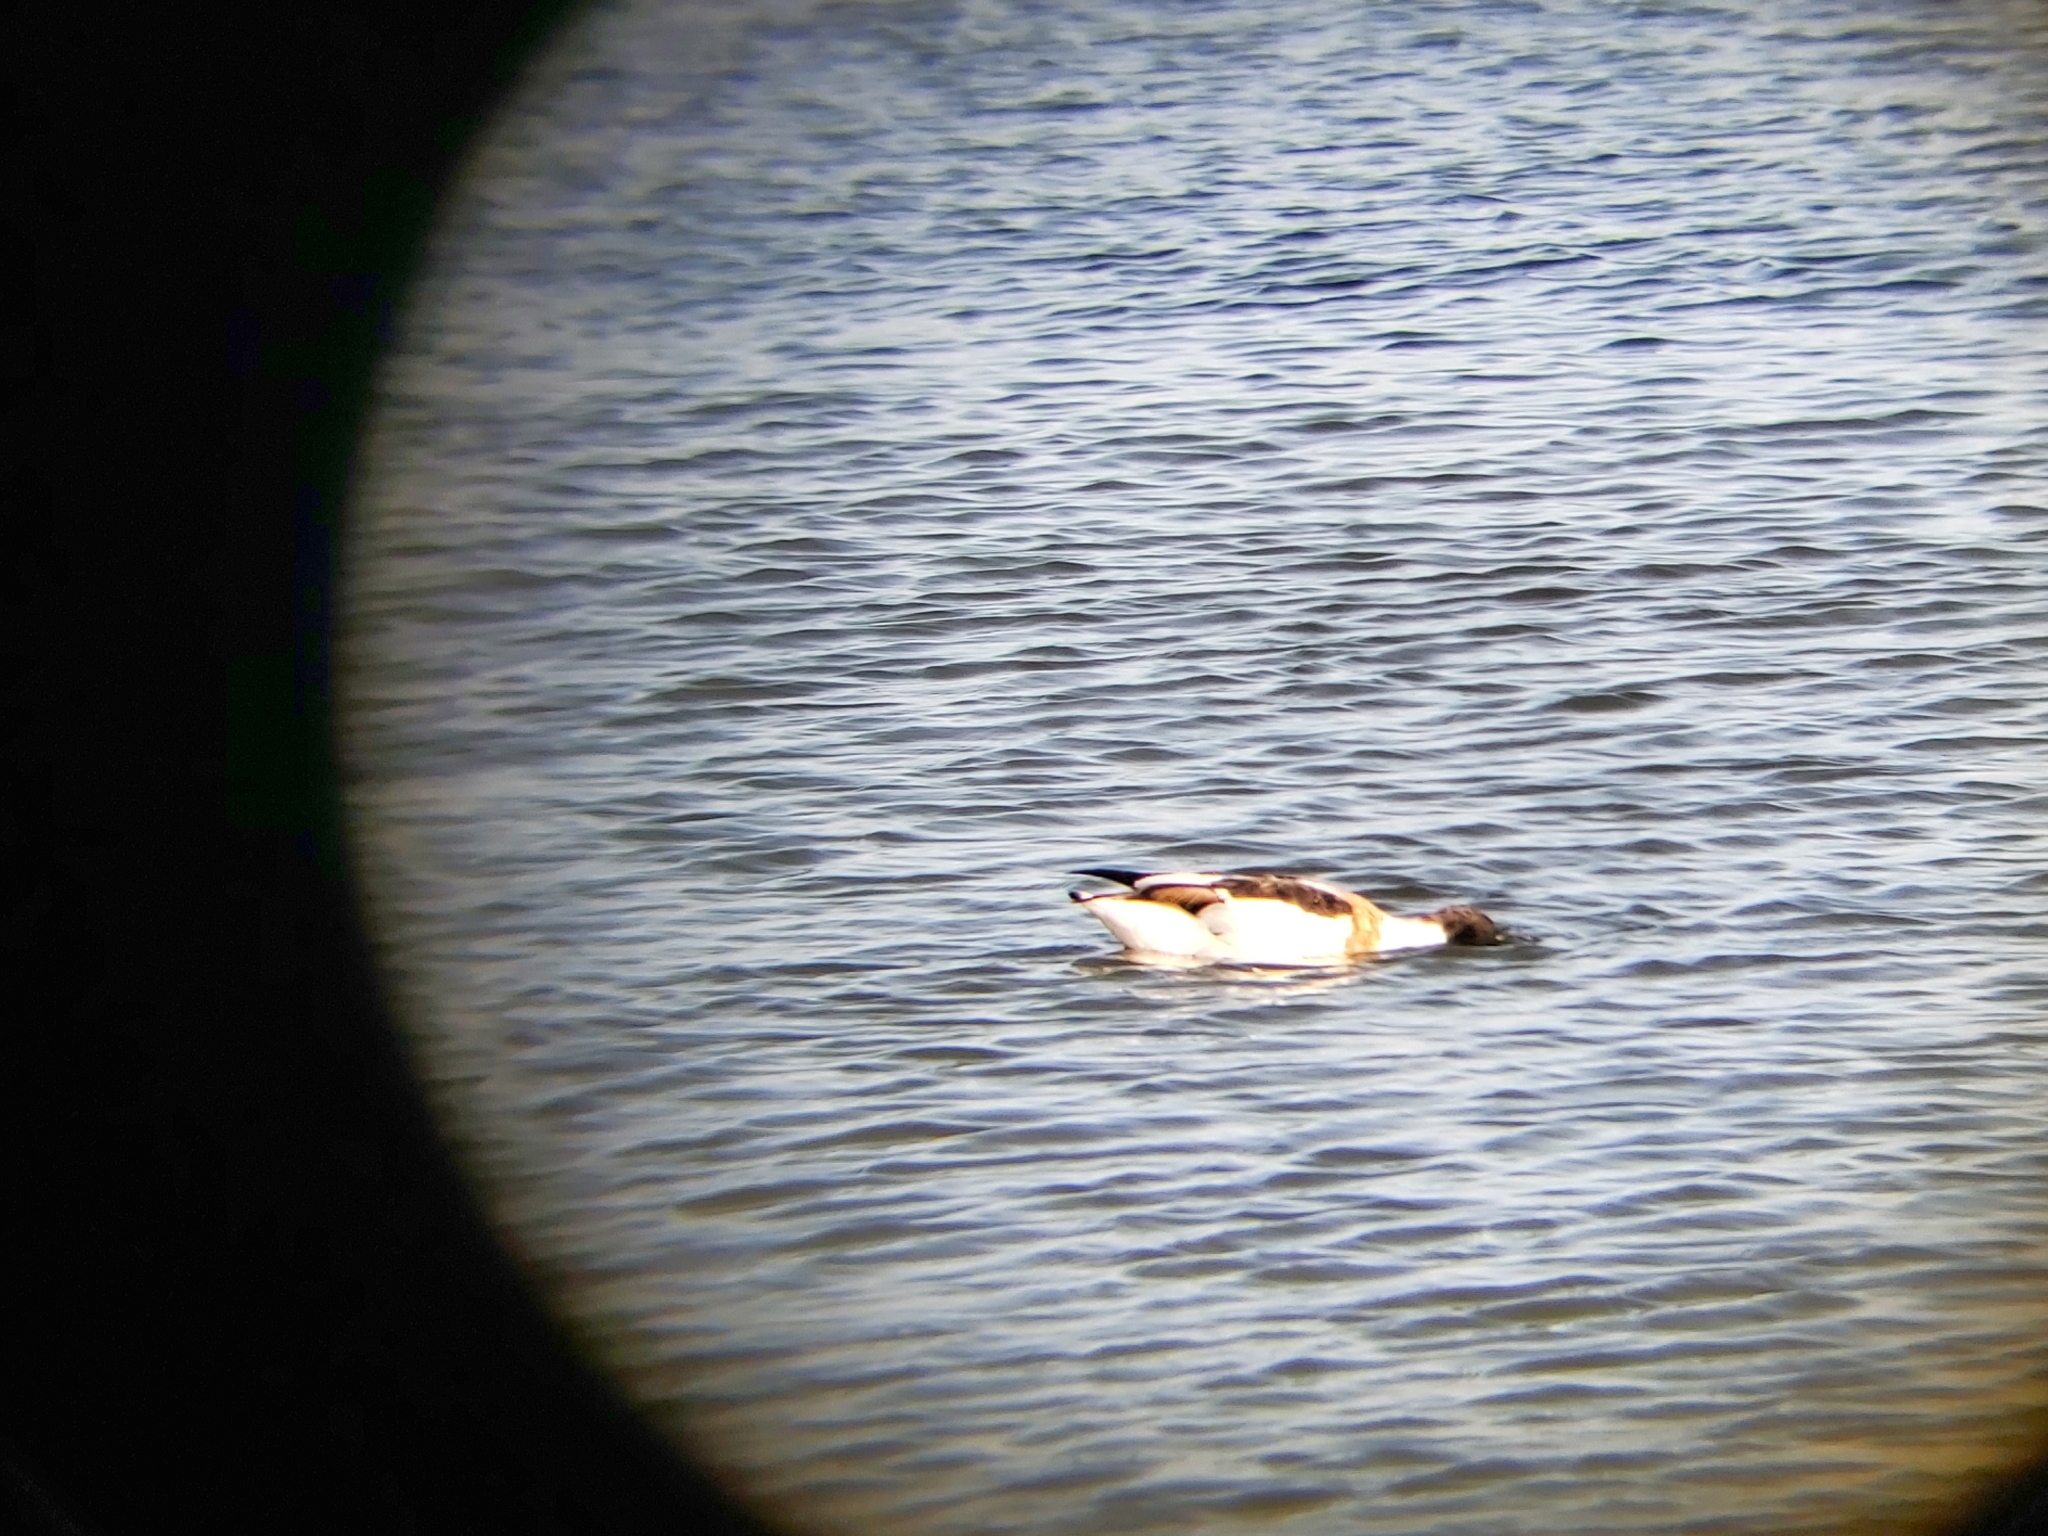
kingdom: Animalia
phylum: Chordata
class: Aves
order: Anseriformes
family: Anatidae
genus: Tadorna
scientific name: Tadorna tadorna
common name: Common shelduck
